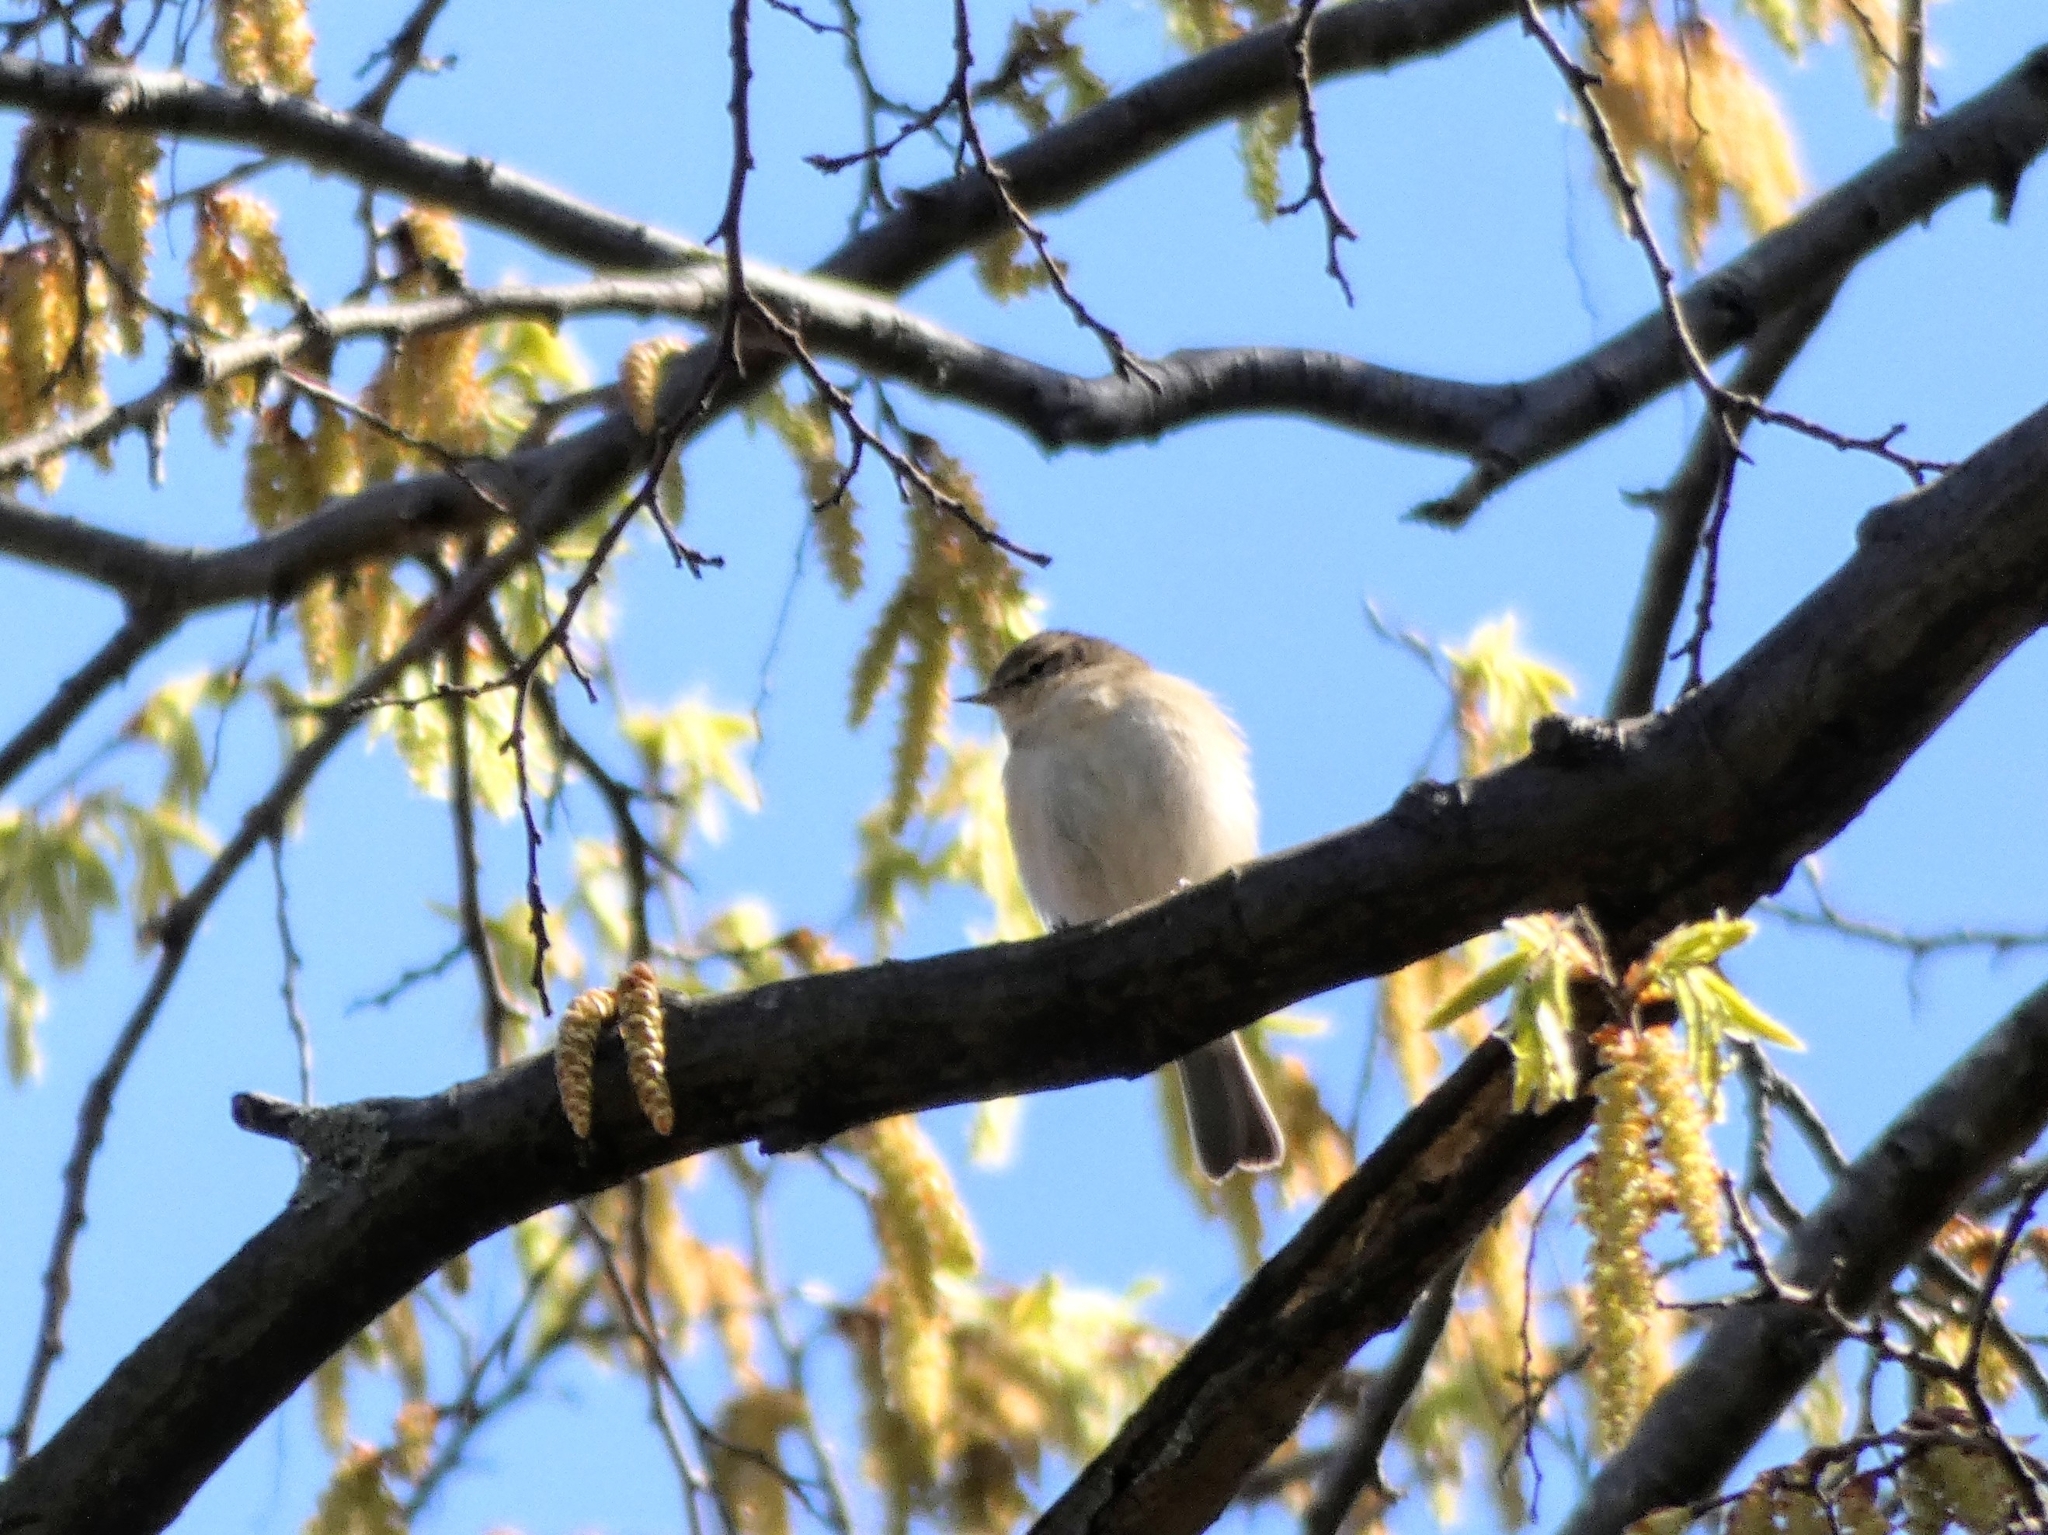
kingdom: Animalia
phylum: Chordata
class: Aves
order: Passeriformes
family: Phylloscopidae
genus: Phylloscopus
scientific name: Phylloscopus collybita
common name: Common chiffchaff
